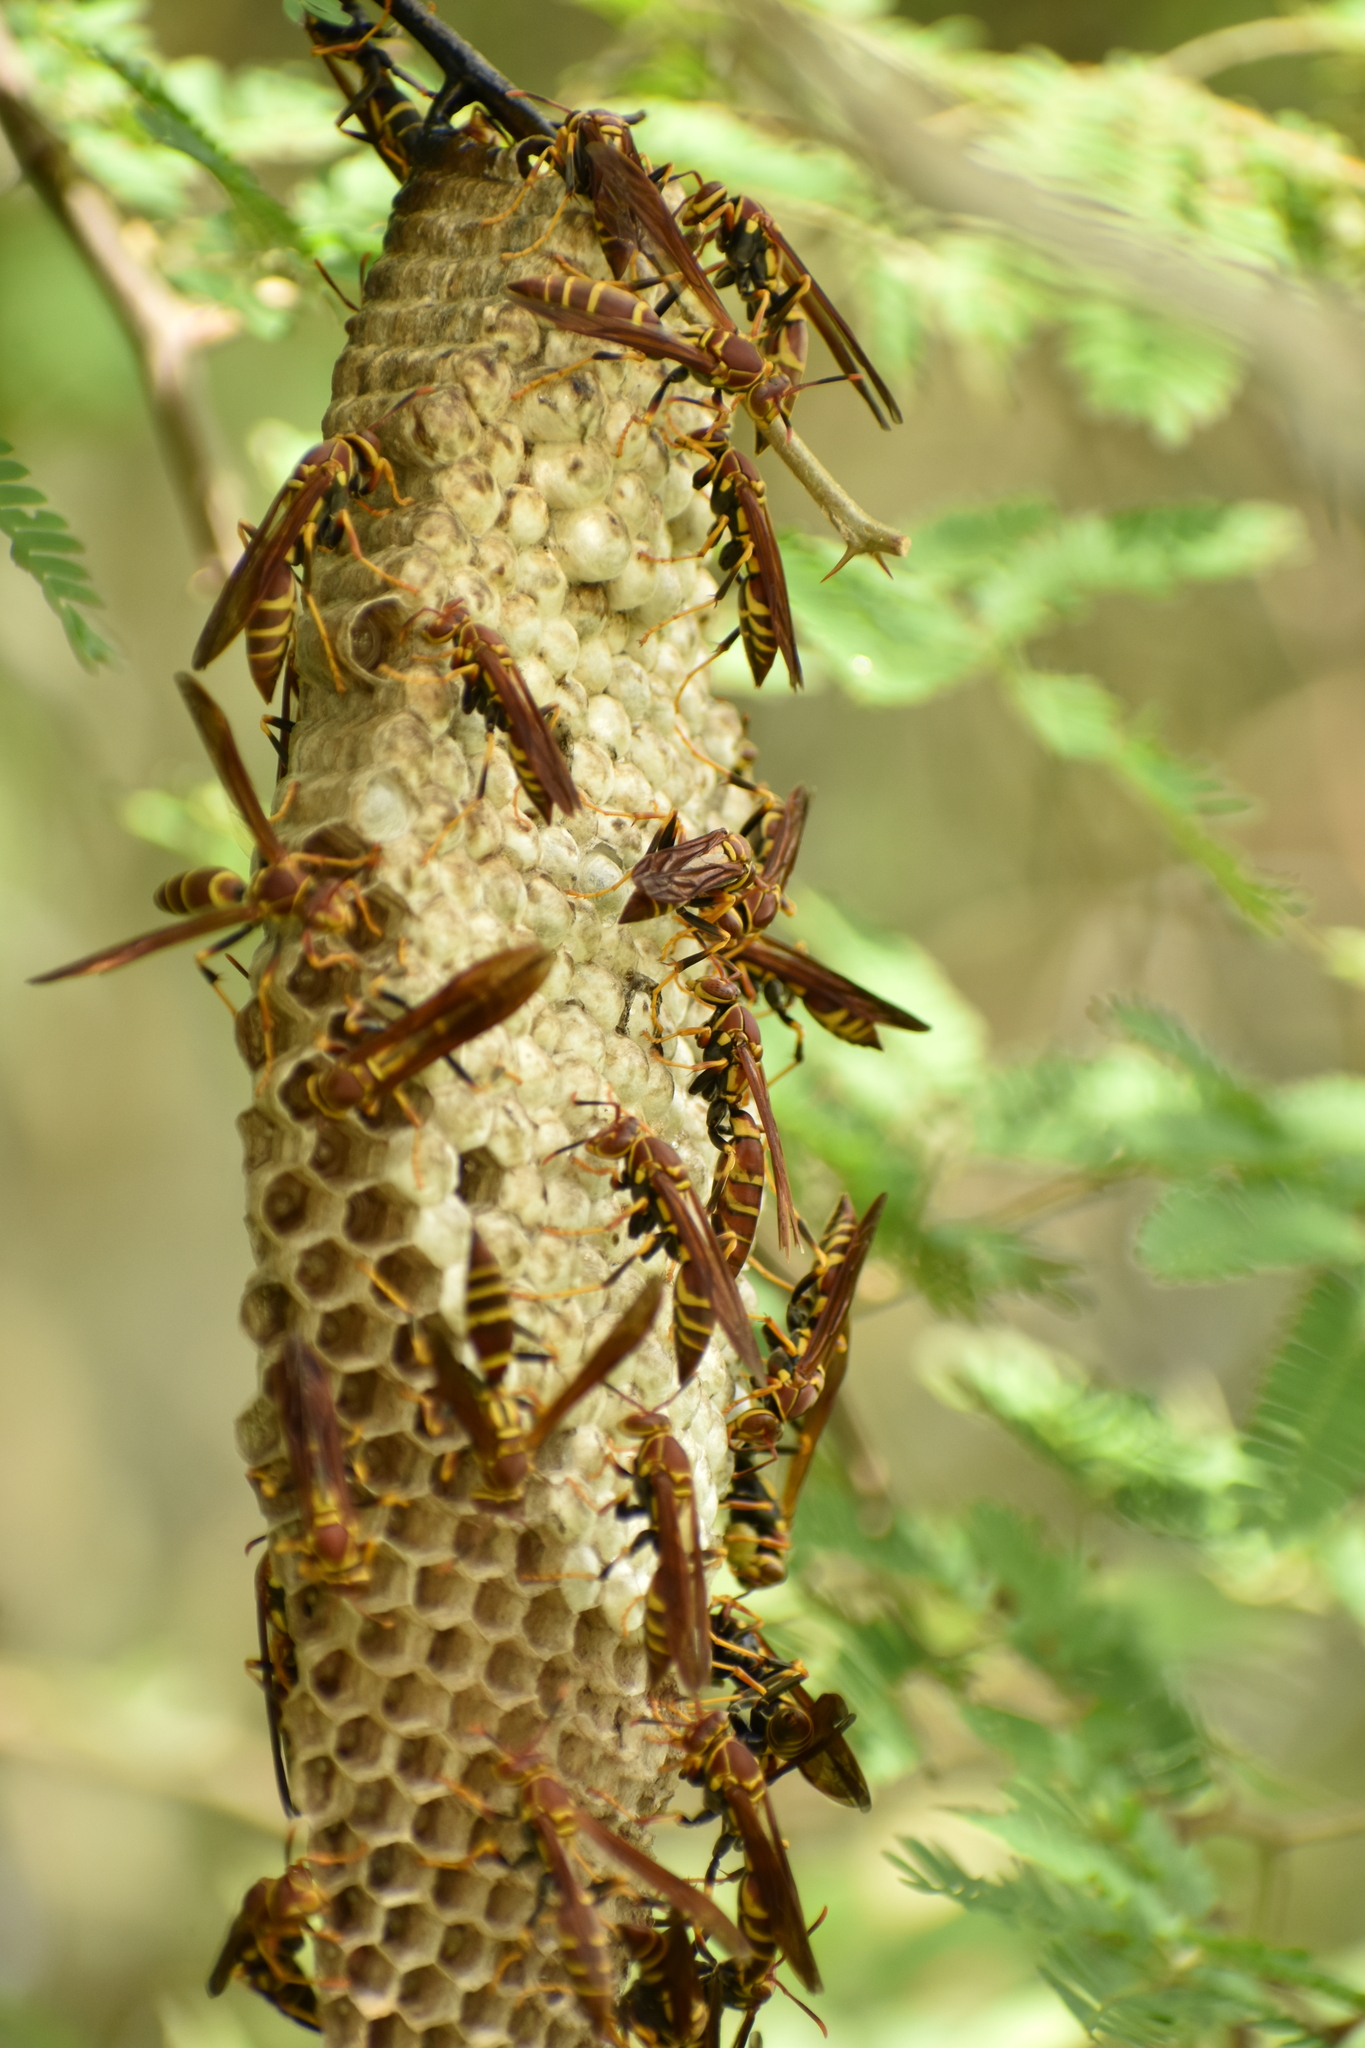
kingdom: Animalia
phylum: Arthropoda
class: Insecta
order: Hymenoptera
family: Eumenidae
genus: Polistes
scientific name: Polistes instabilis
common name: Unstable paper wasp
